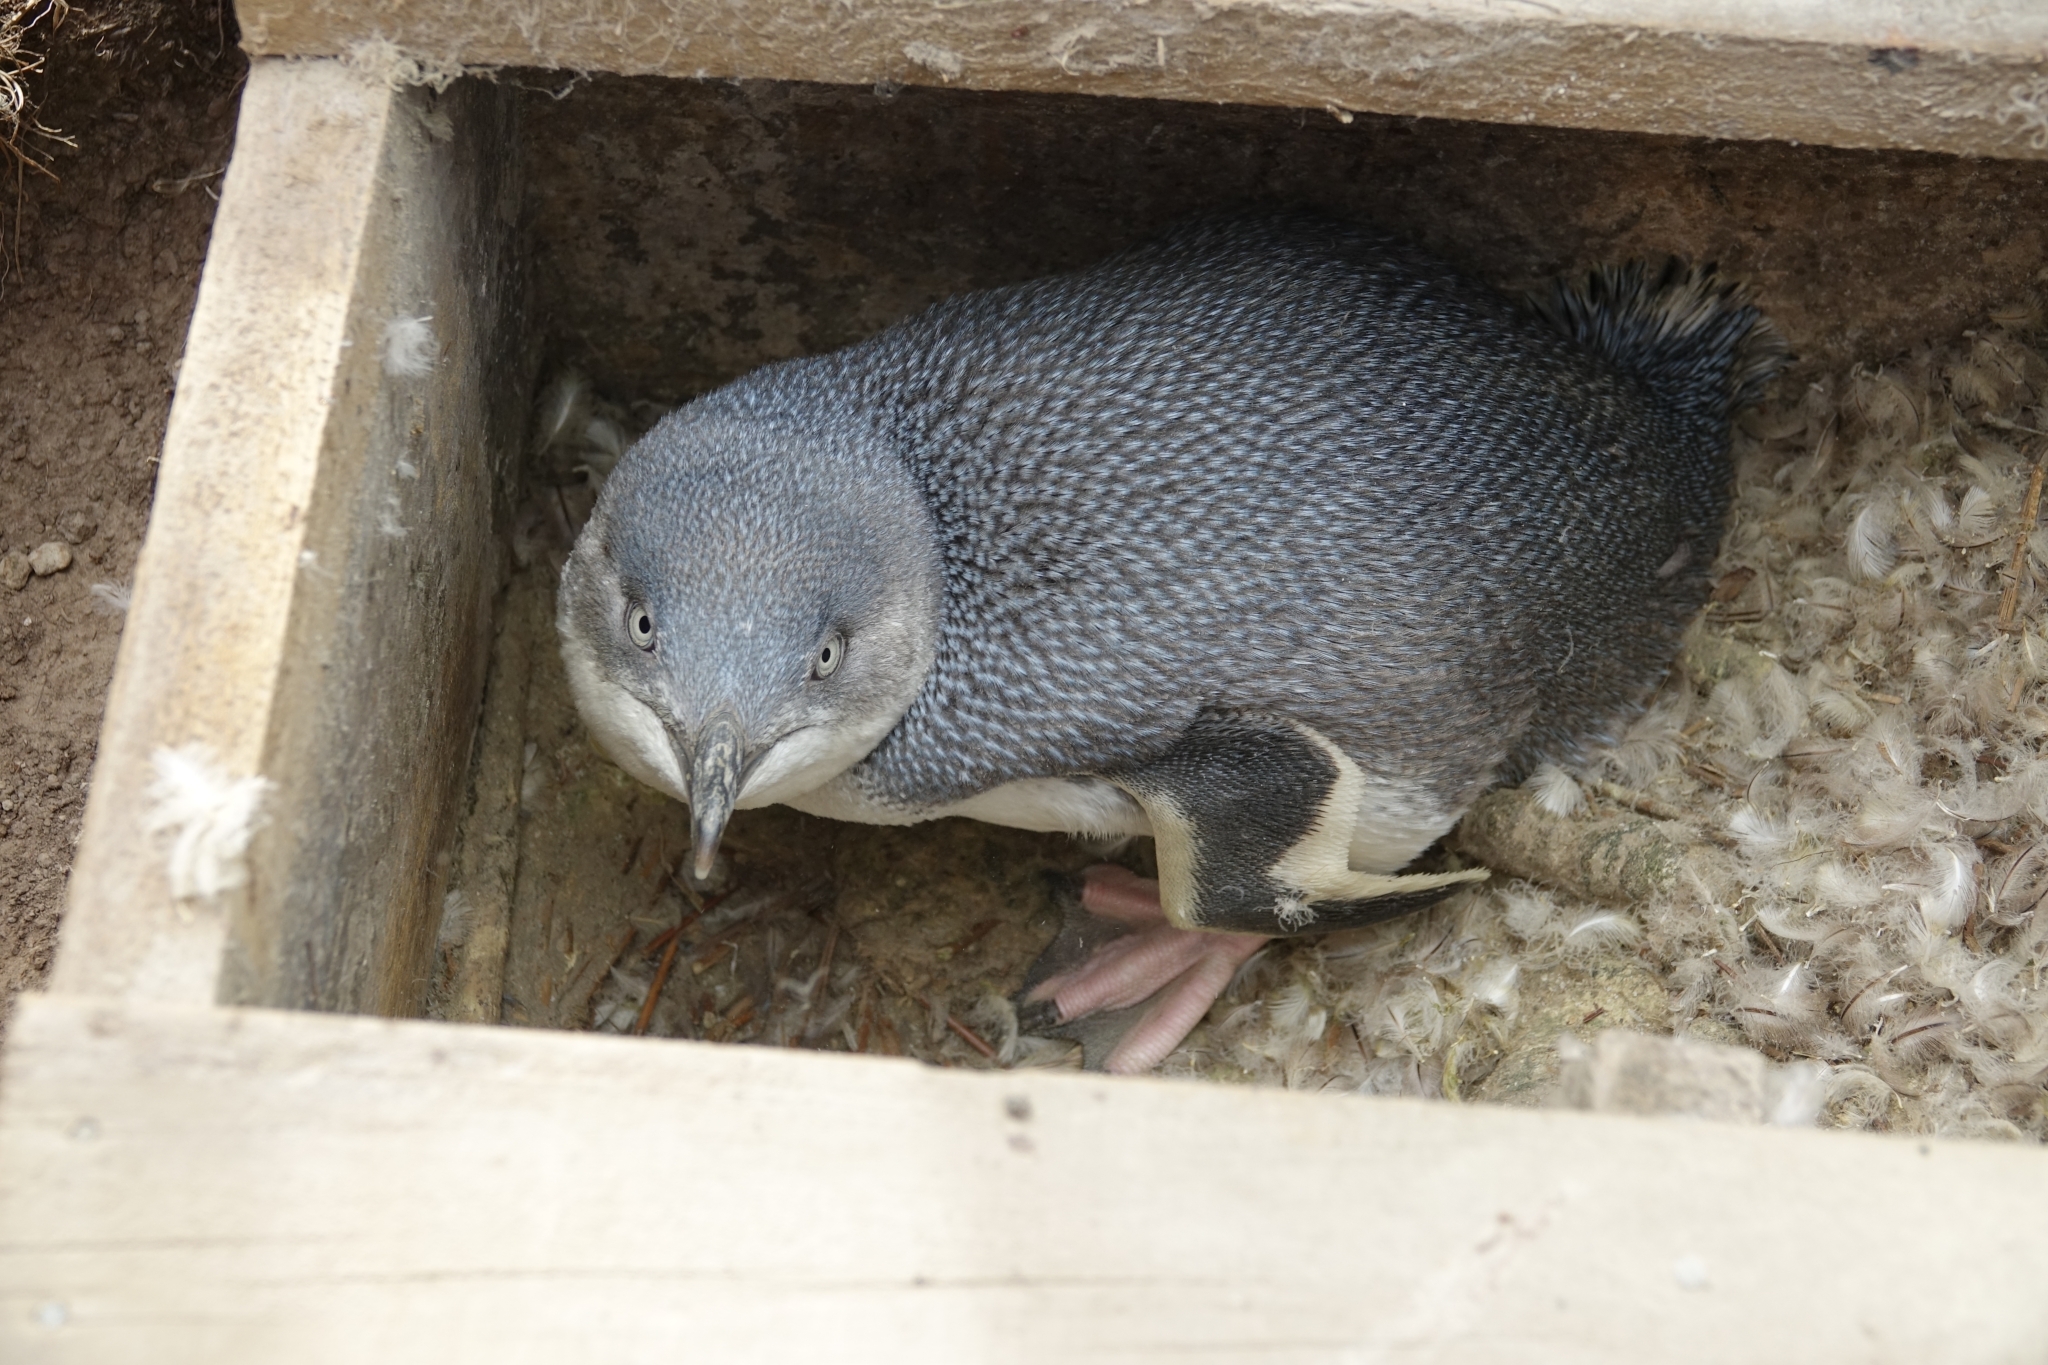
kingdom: Animalia
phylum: Chordata
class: Aves
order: Sphenisciformes
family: Spheniscidae
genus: Eudyptula
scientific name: Eudyptula minor
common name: Little penguin
